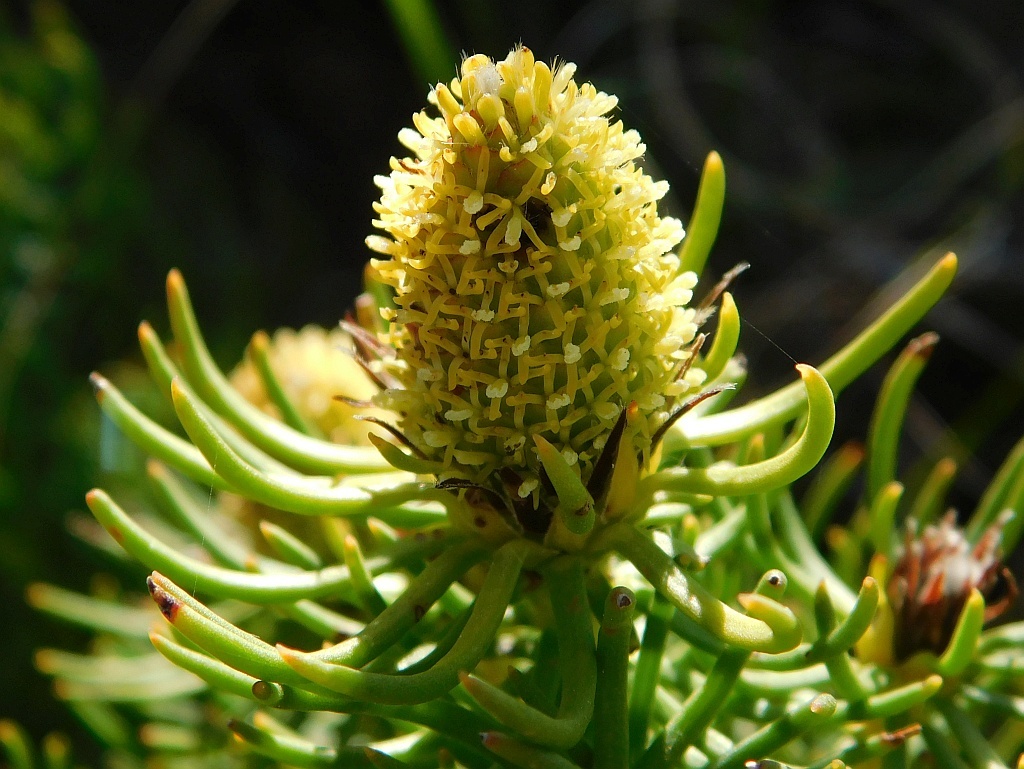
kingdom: Plantae
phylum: Tracheophyta
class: Magnoliopsida
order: Proteales
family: Proteaceae
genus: Leucadendron
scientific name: Leucadendron teretifolium
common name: Needle-leaf conebush
